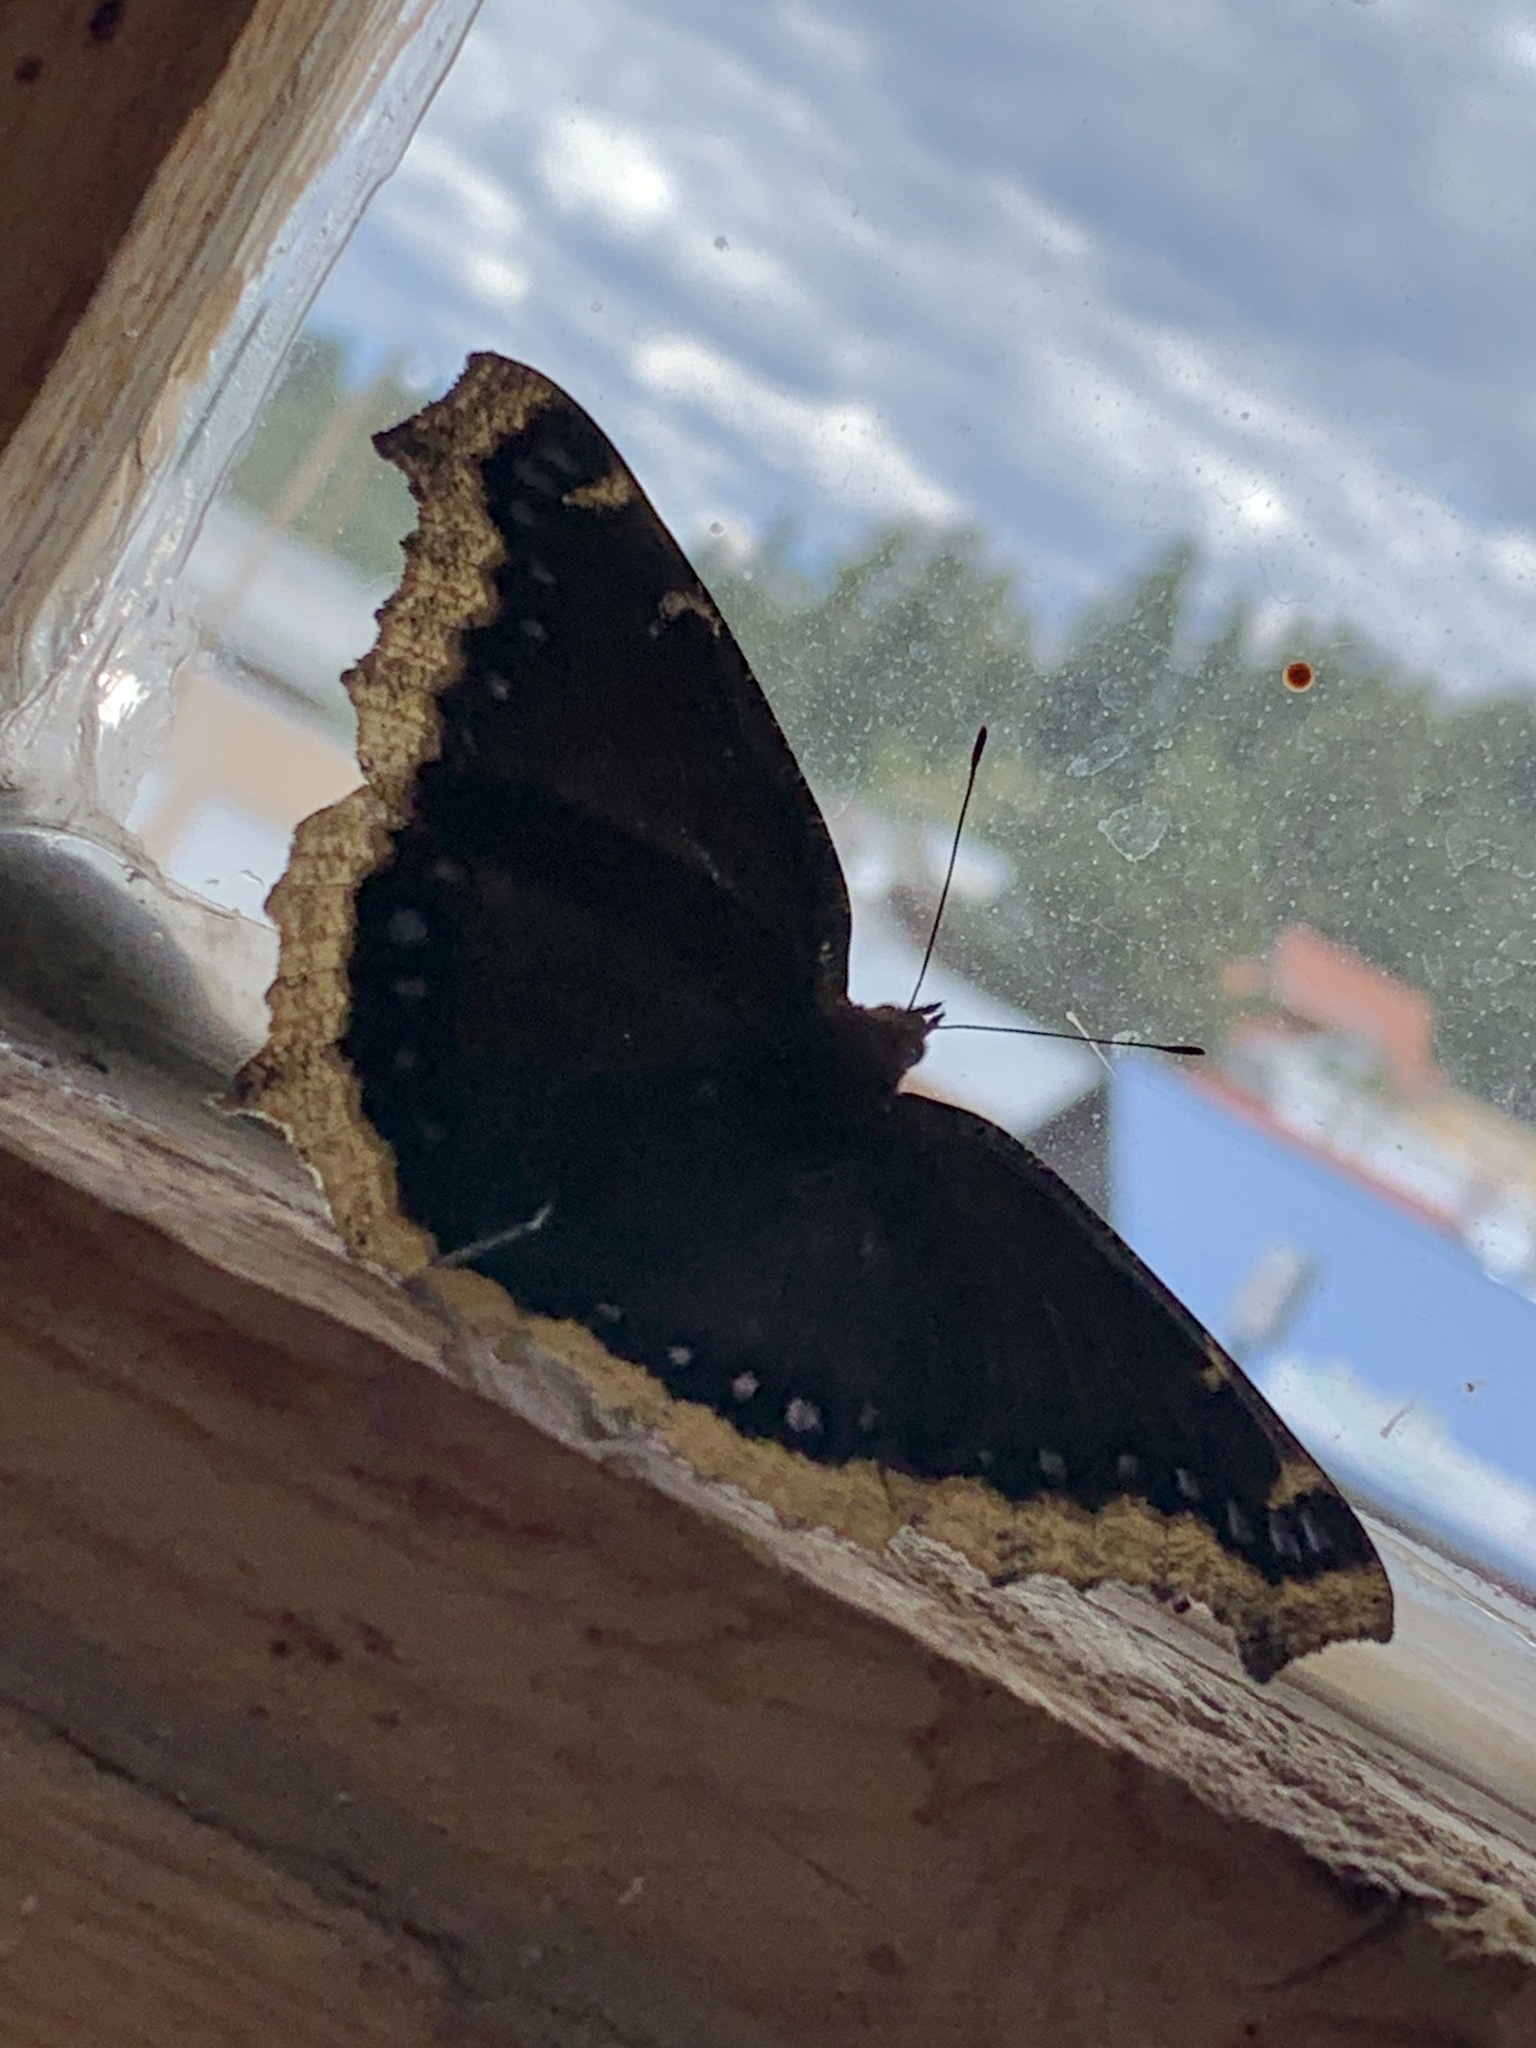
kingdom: Animalia
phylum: Arthropoda
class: Insecta
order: Lepidoptera
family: Nymphalidae
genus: Nymphalis
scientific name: Nymphalis antiopa
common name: Camberwell beauty
